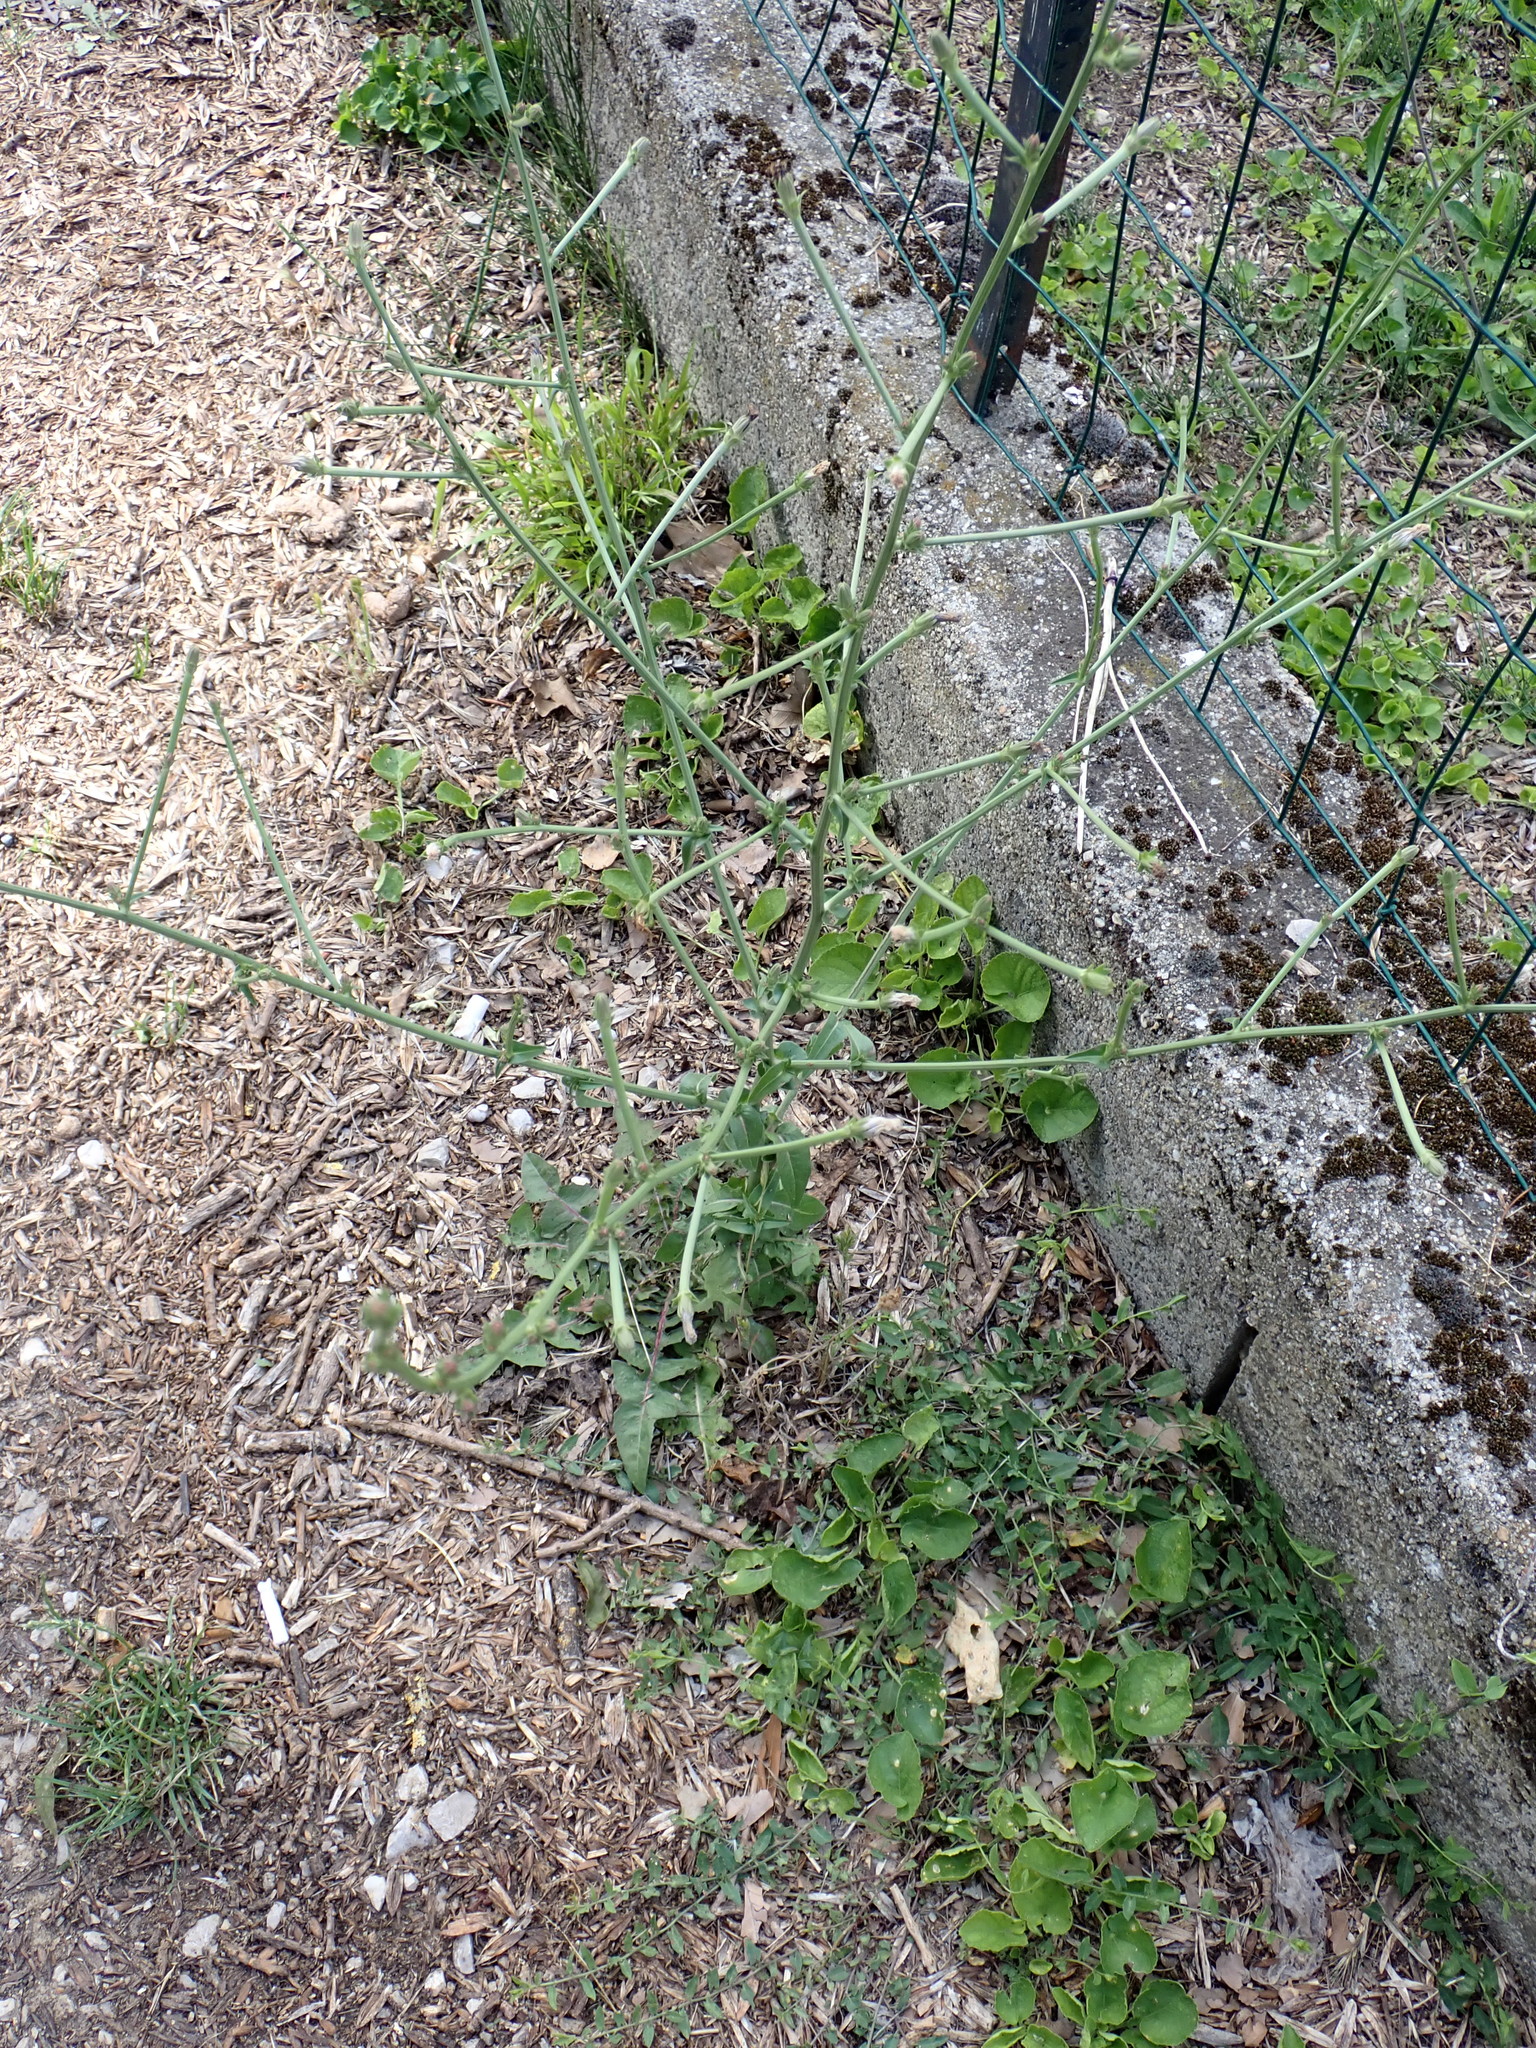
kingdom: Plantae
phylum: Tracheophyta
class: Magnoliopsida
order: Asterales
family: Asteraceae
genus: Cichorium
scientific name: Cichorium intybus
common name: Chicory
